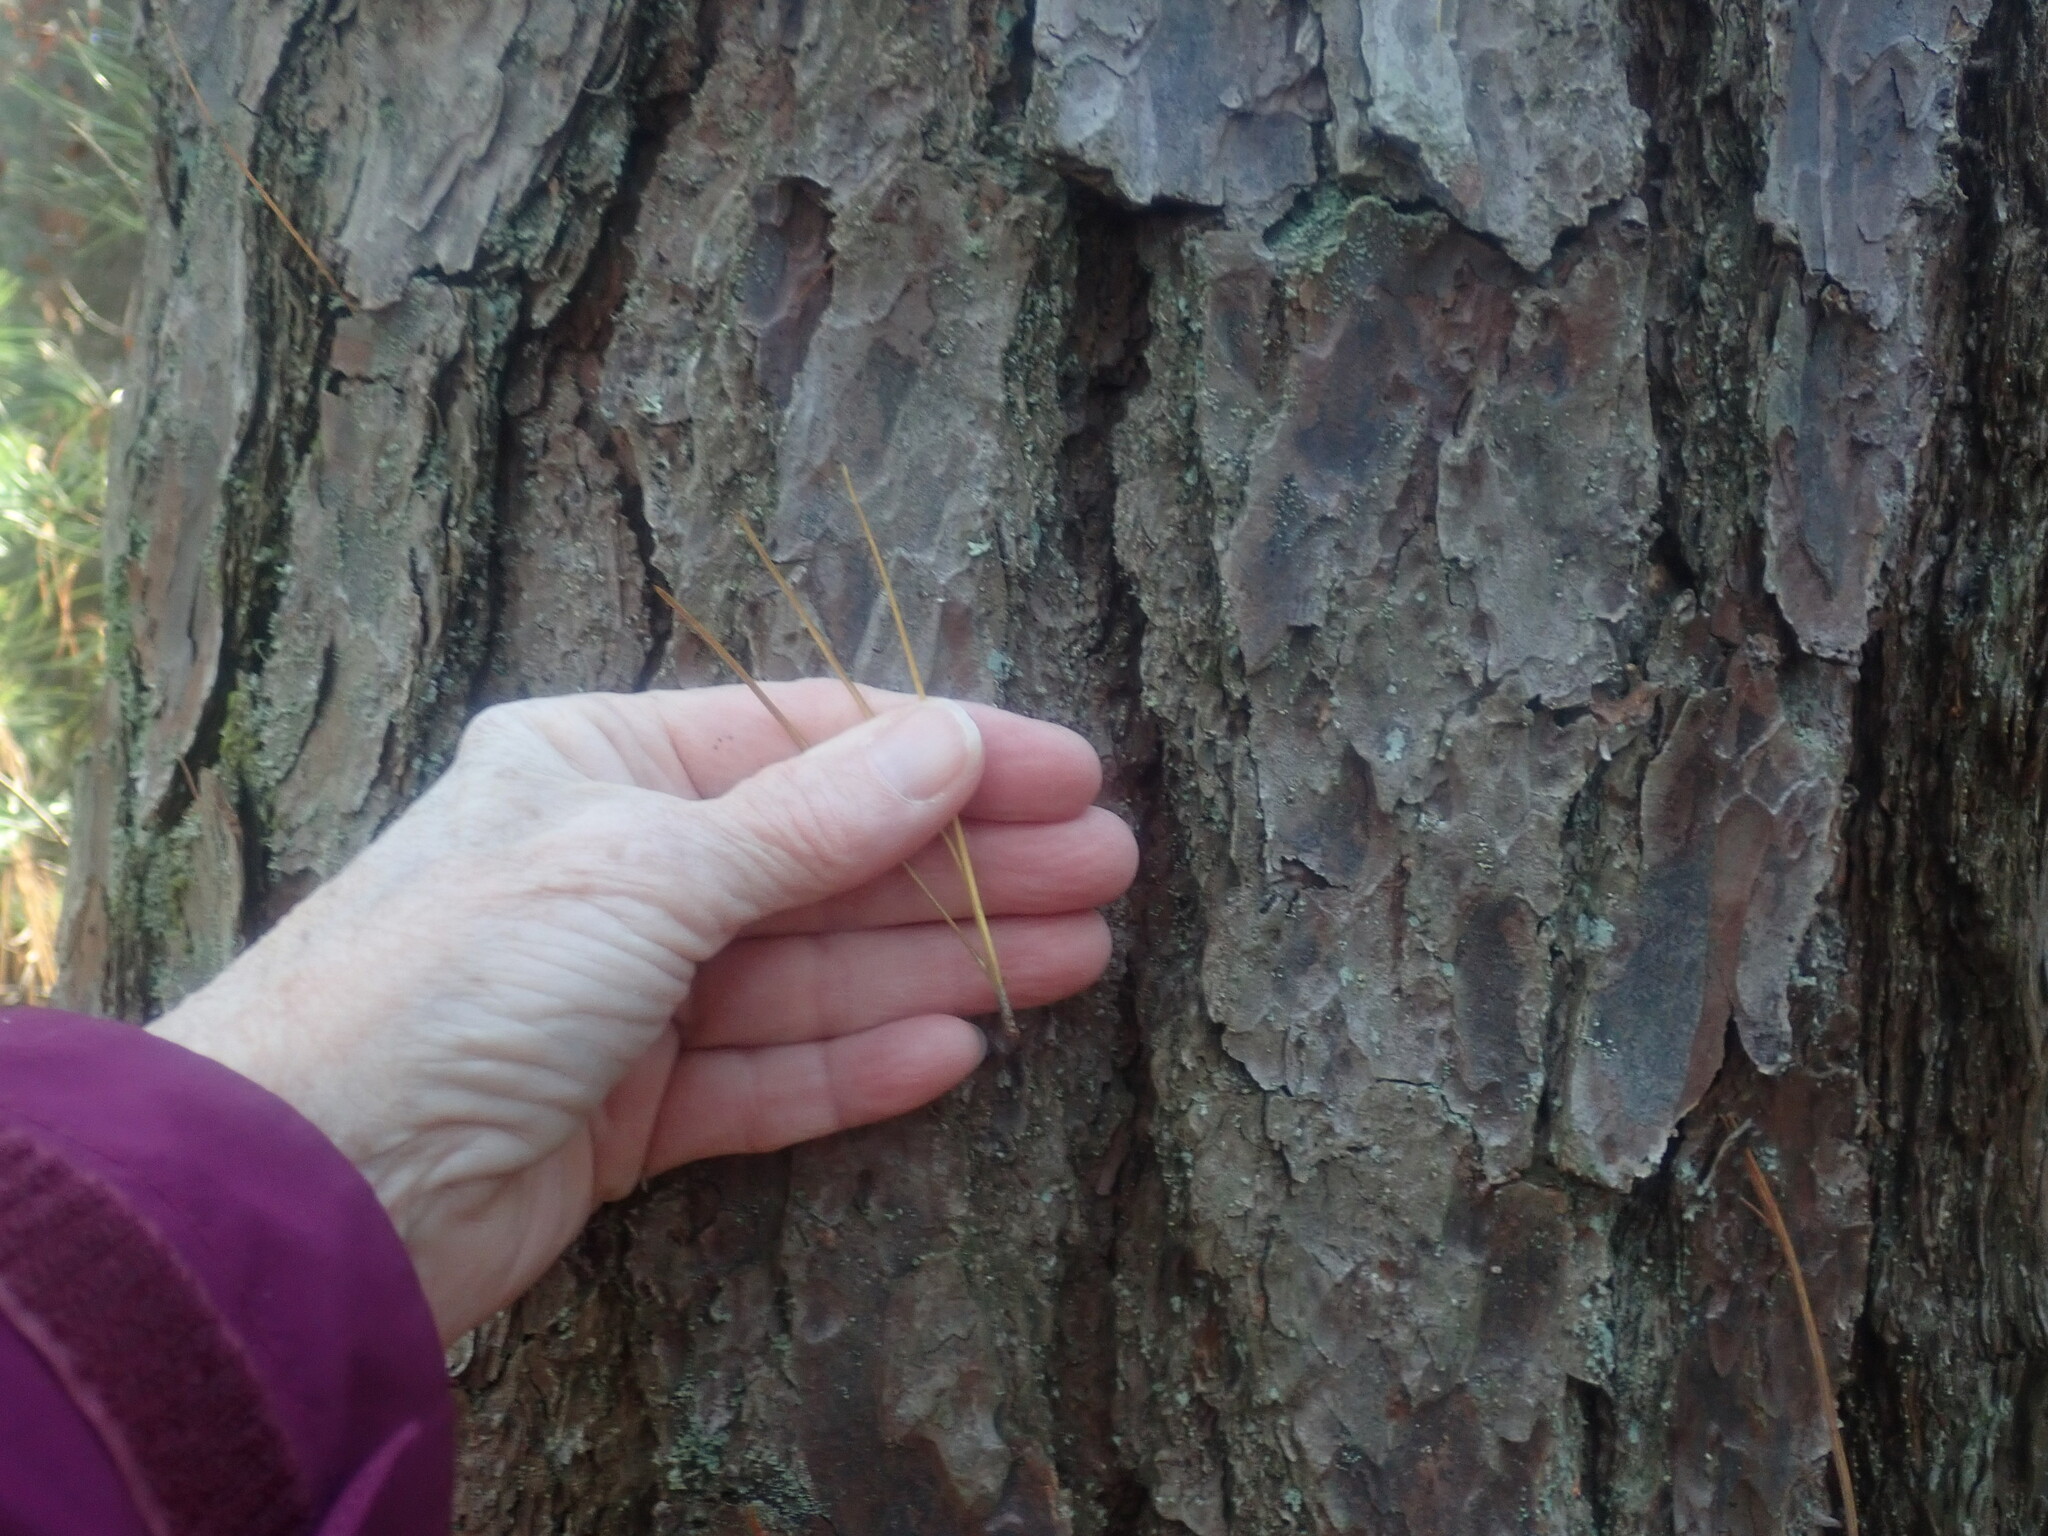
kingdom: Plantae
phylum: Tracheophyta
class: Pinopsida
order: Pinales
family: Pinaceae
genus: Pinus
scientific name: Pinus rigida
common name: Pitch pine
